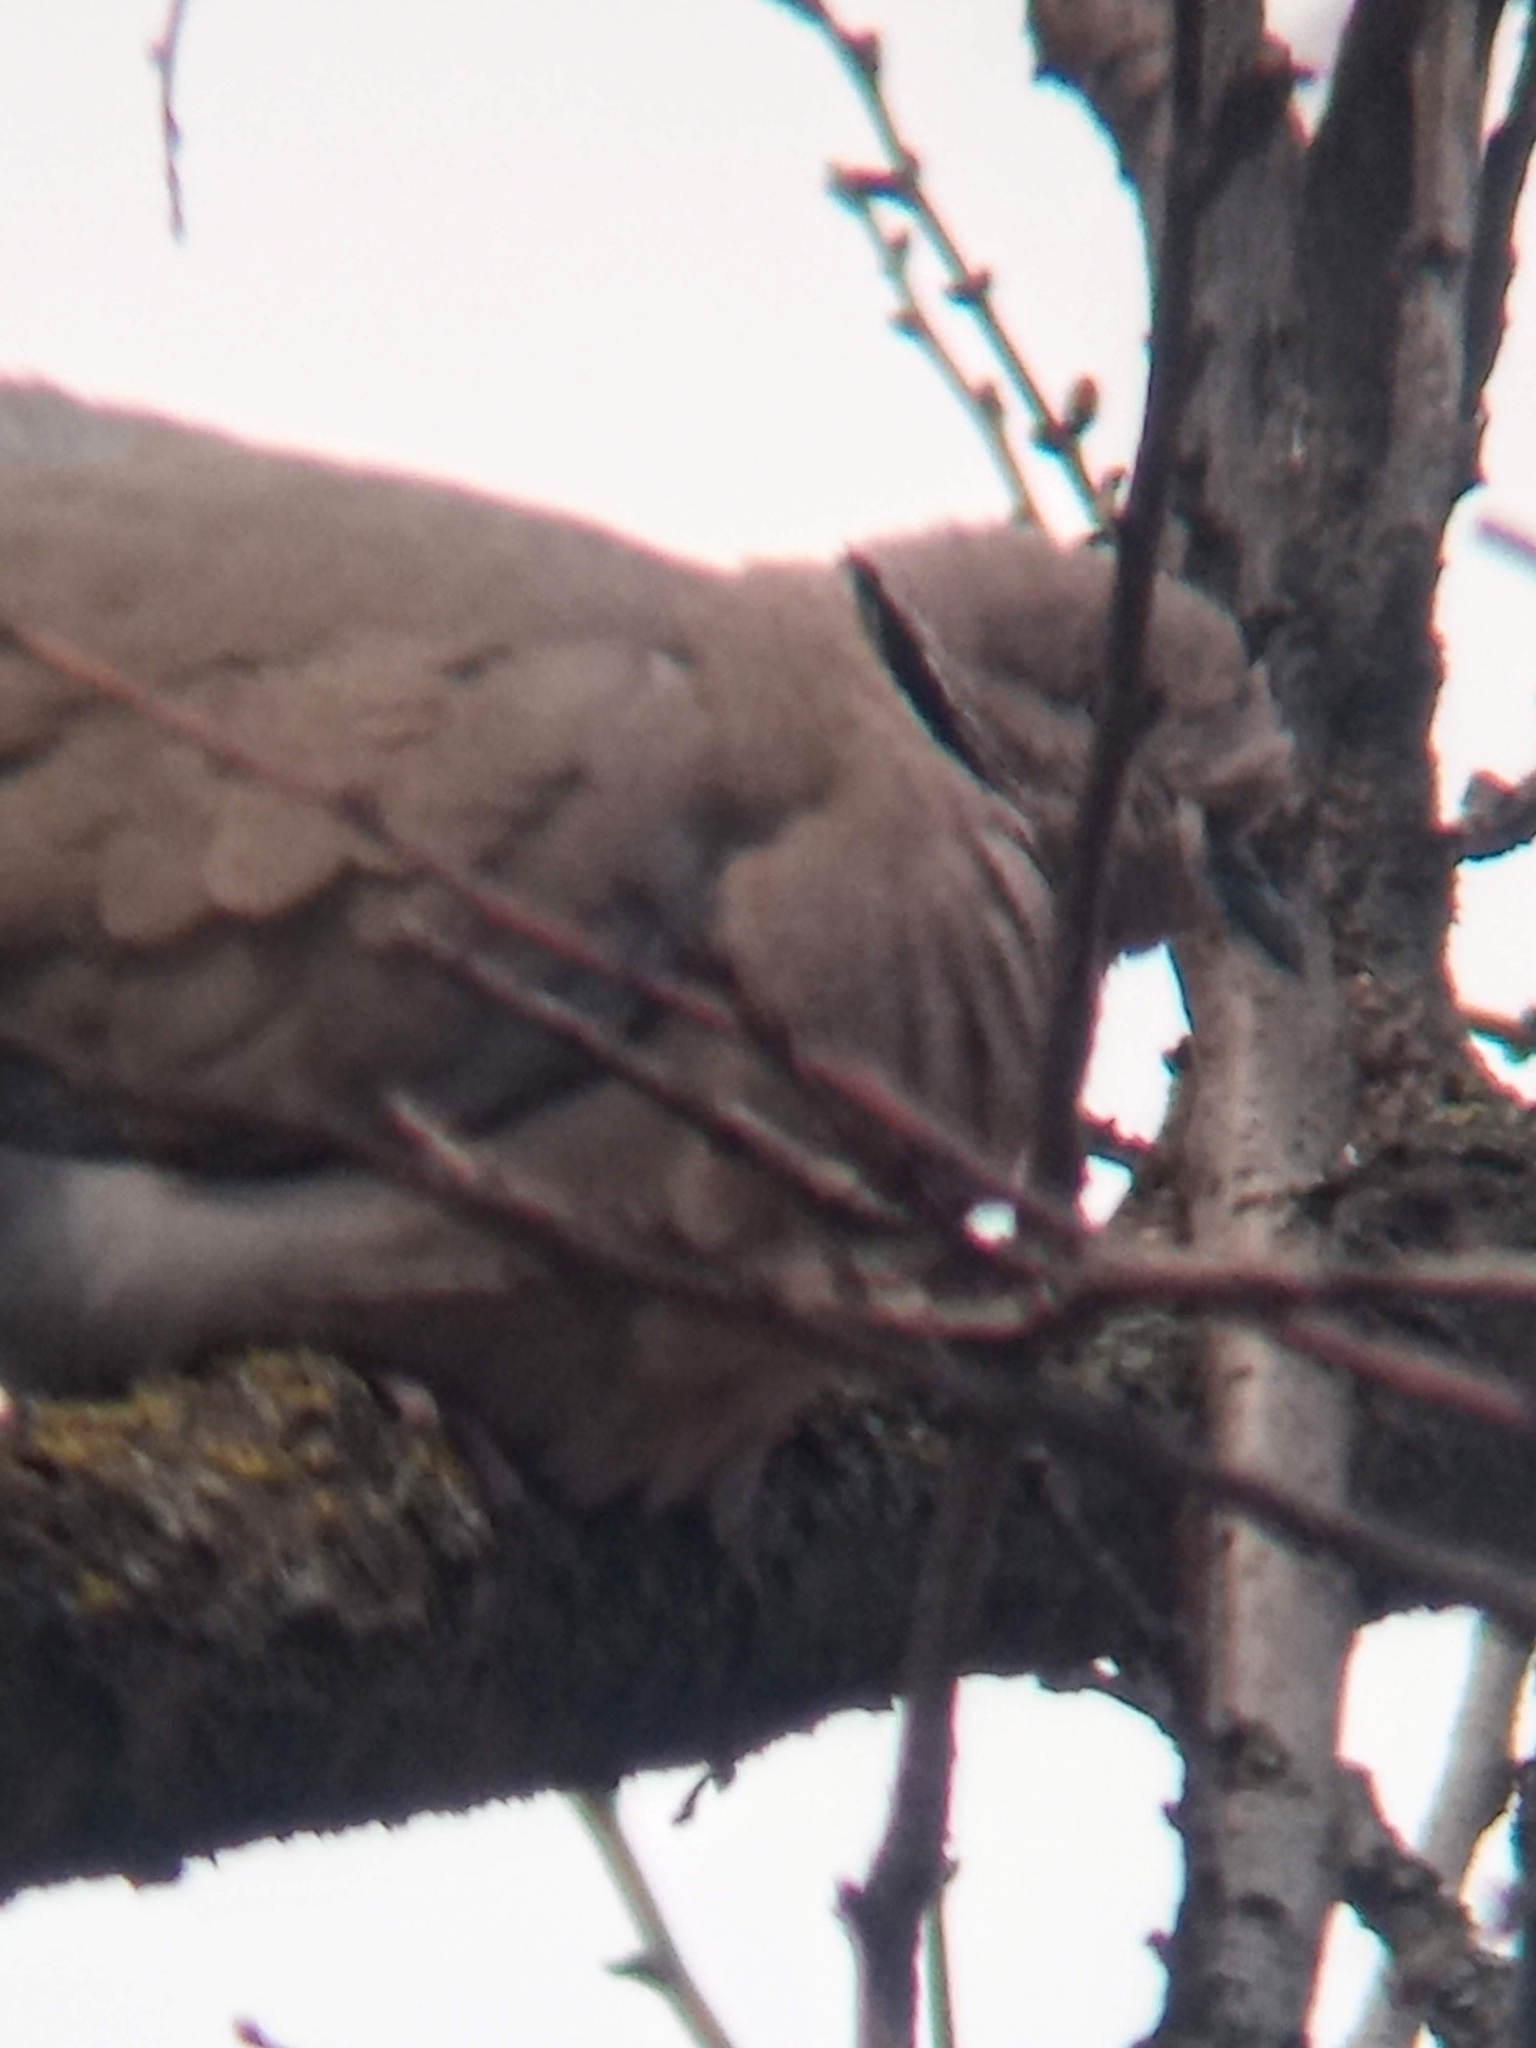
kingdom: Animalia
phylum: Chordata
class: Aves
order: Columbiformes
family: Columbidae
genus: Streptopelia
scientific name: Streptopelia decaocto
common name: Eurasian collared dove
